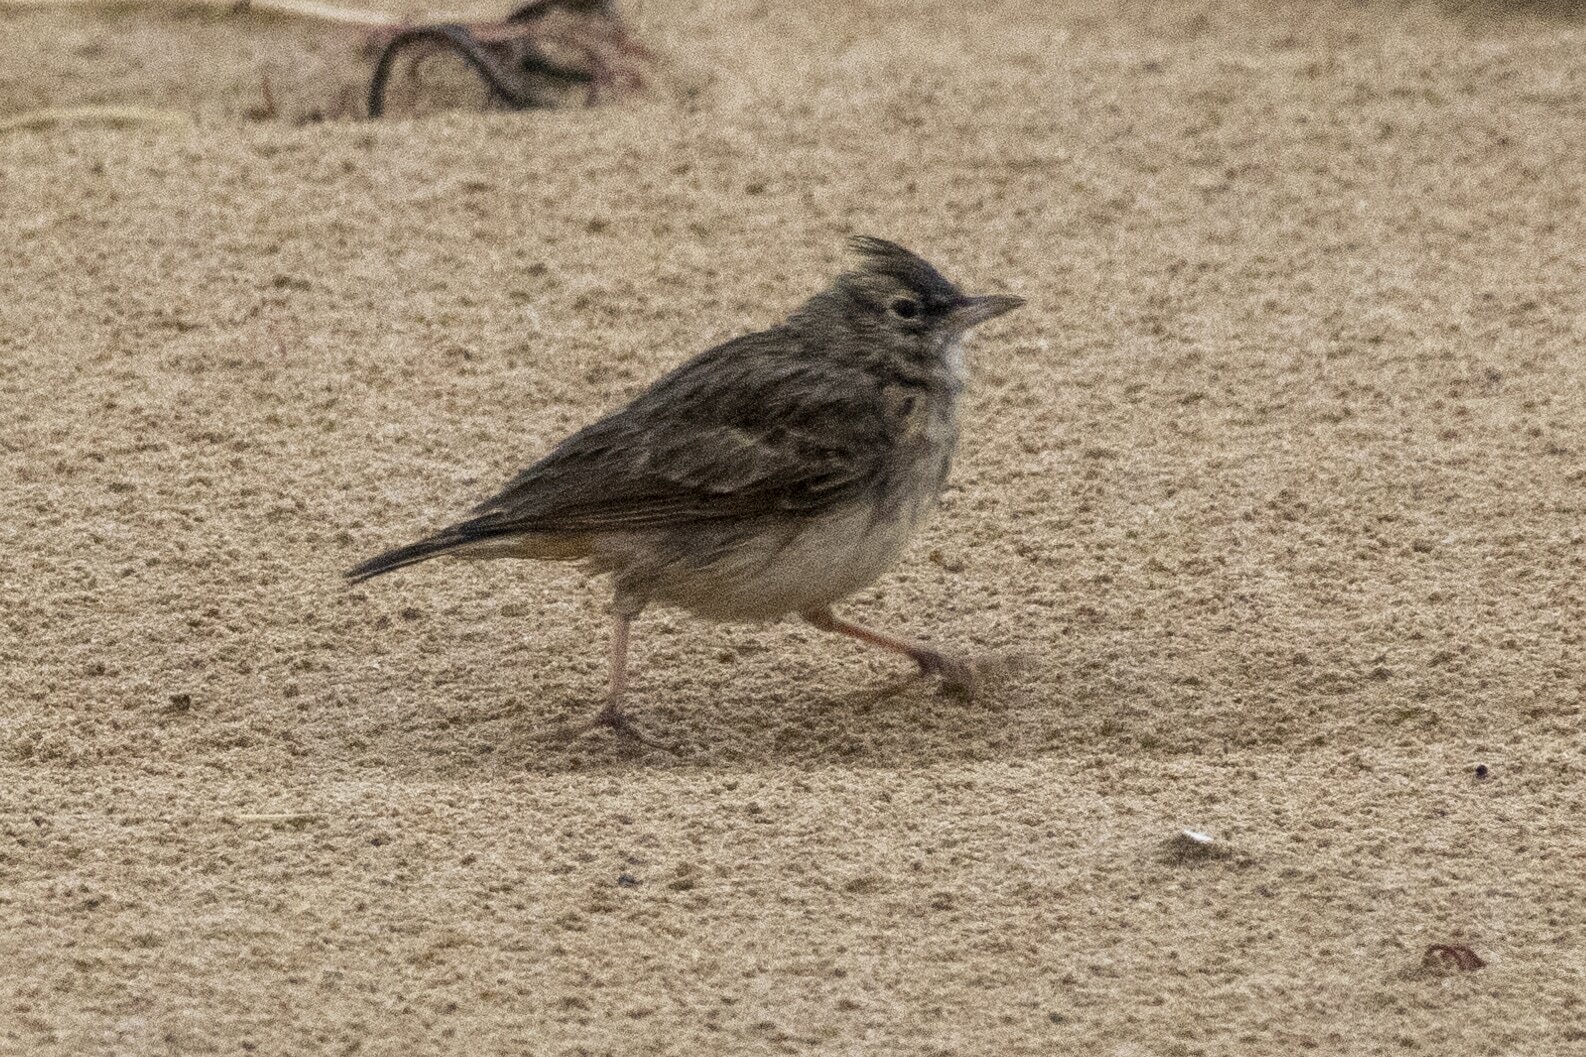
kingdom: Animalia
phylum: Chordata
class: Aves
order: Passeriformes
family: Alaudidae
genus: Galerida
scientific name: Galerida cristata
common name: Crested lark
